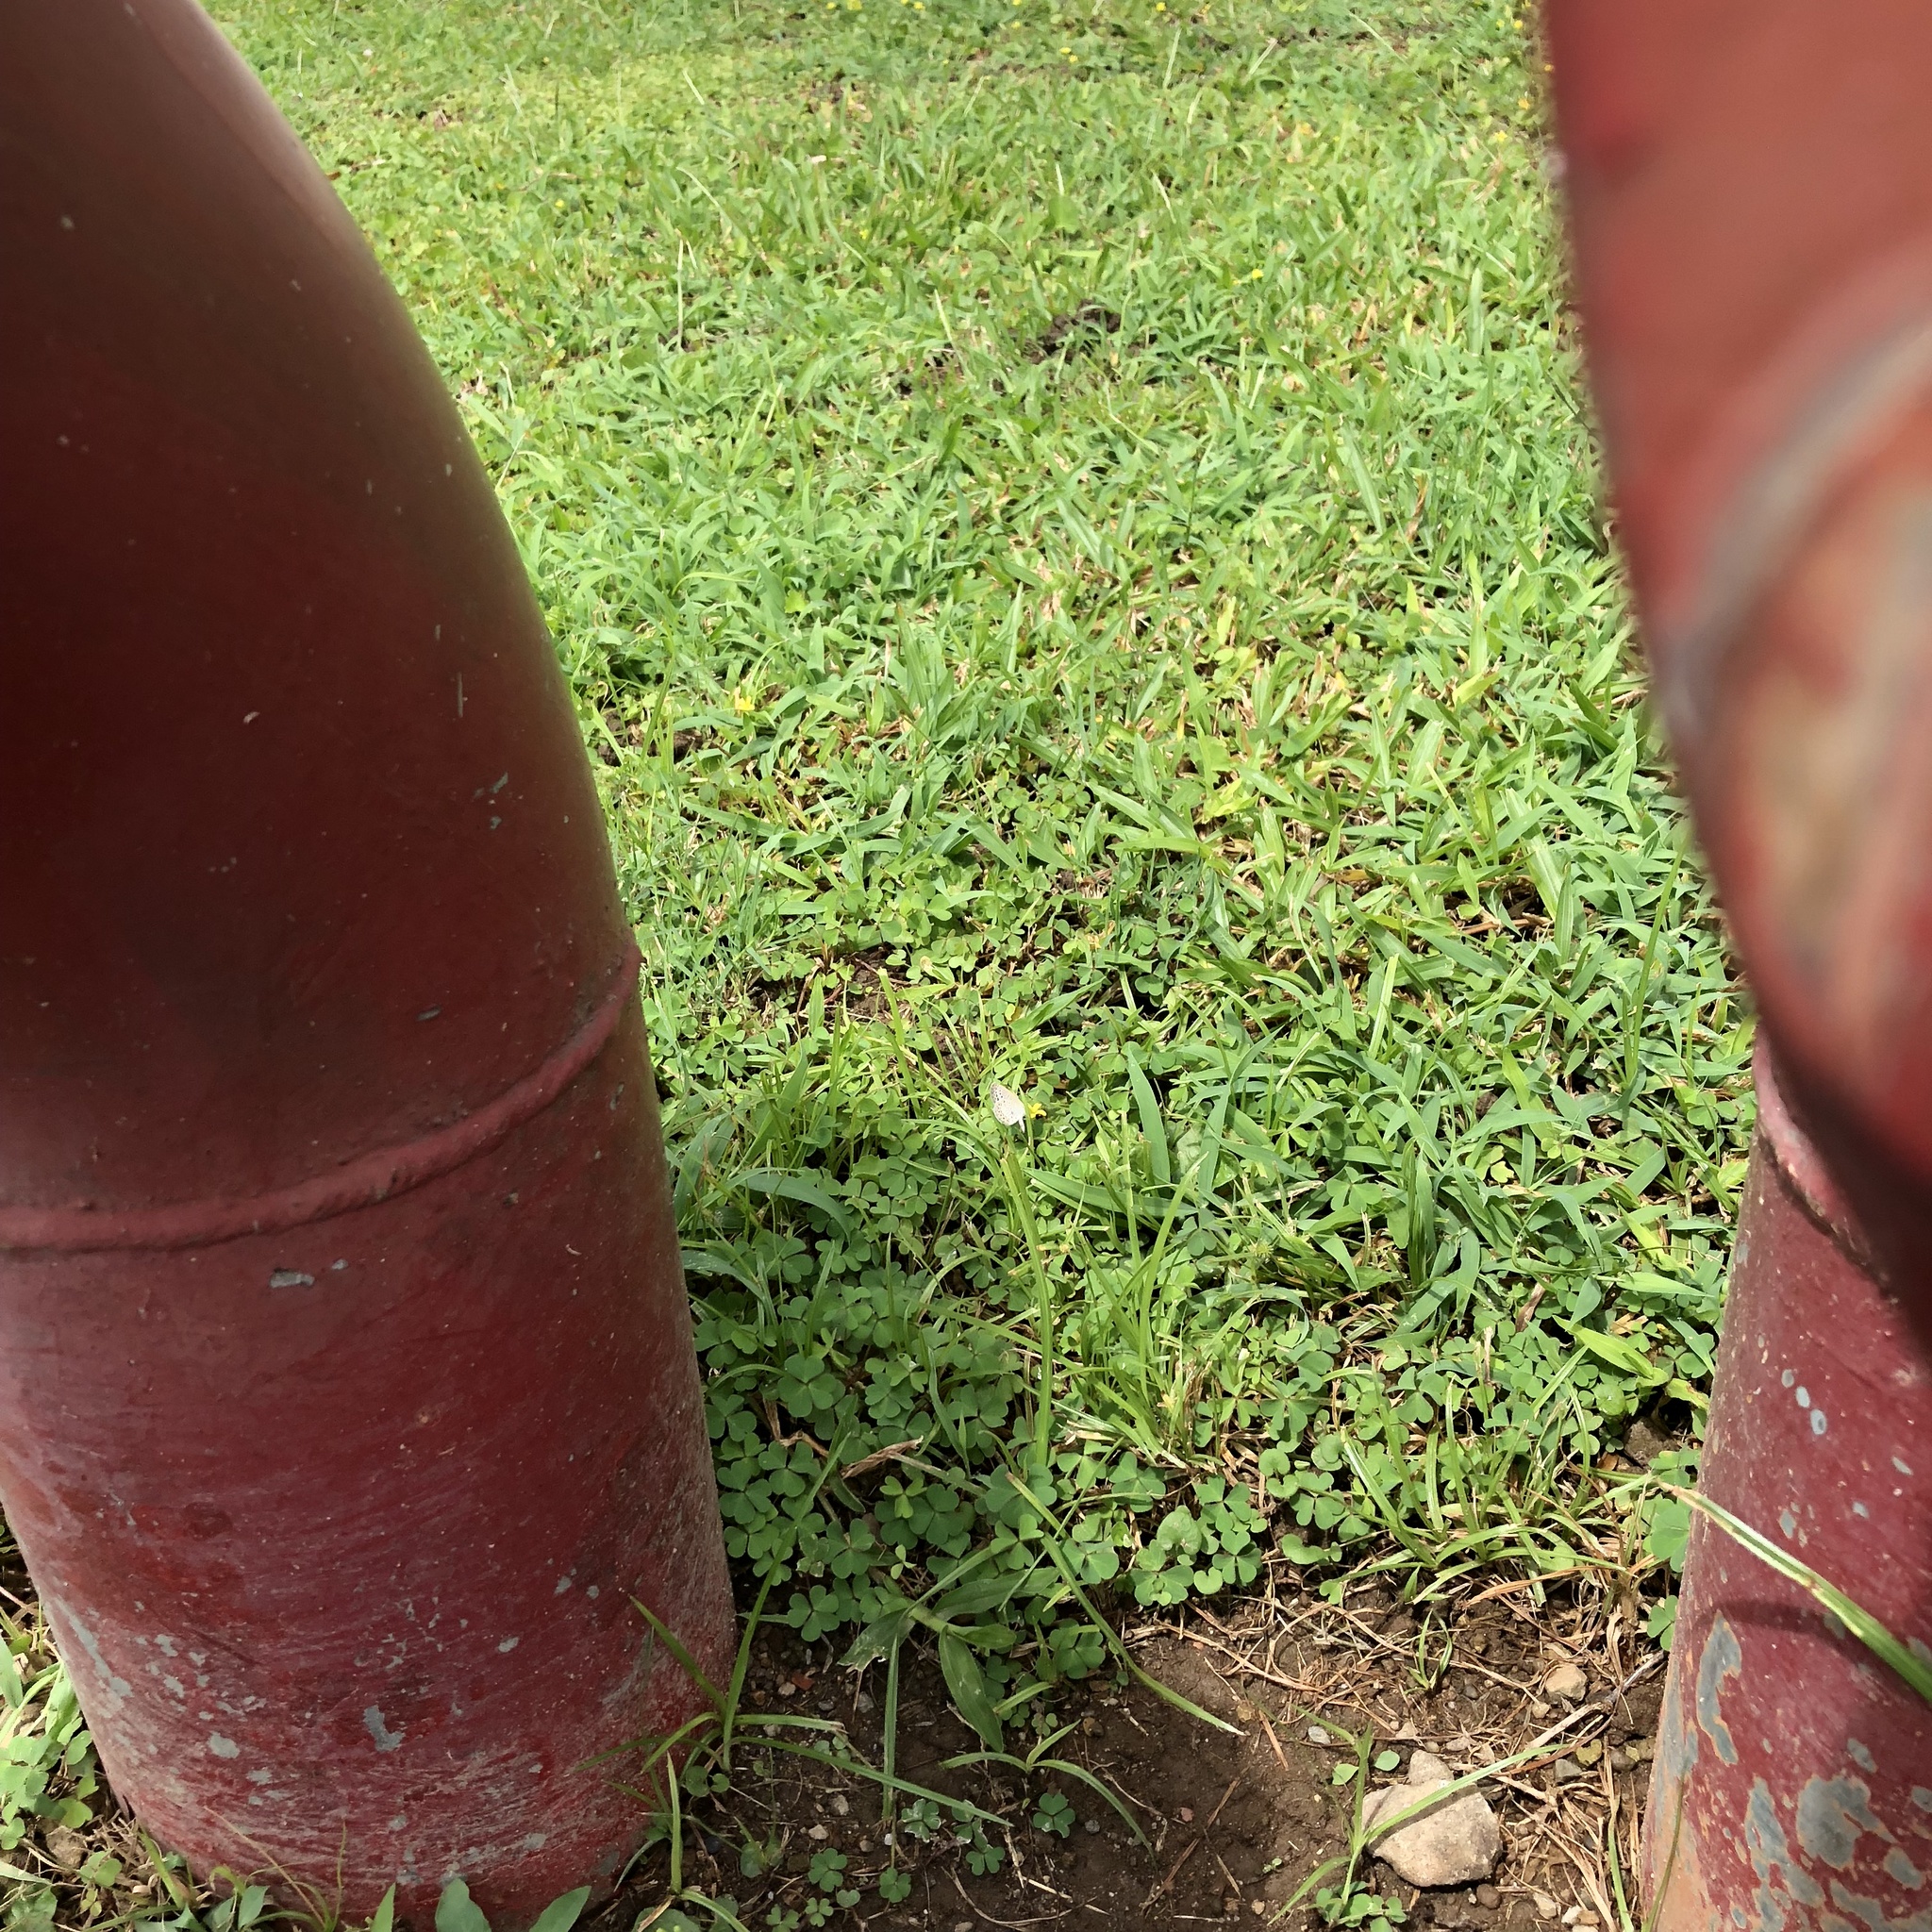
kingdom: Animalia
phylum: Arthropoda
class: Insecta
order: Lepidoptera
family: Lycaenidae
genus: Pseudozizeeria
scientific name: Pseudozizeeria maha
